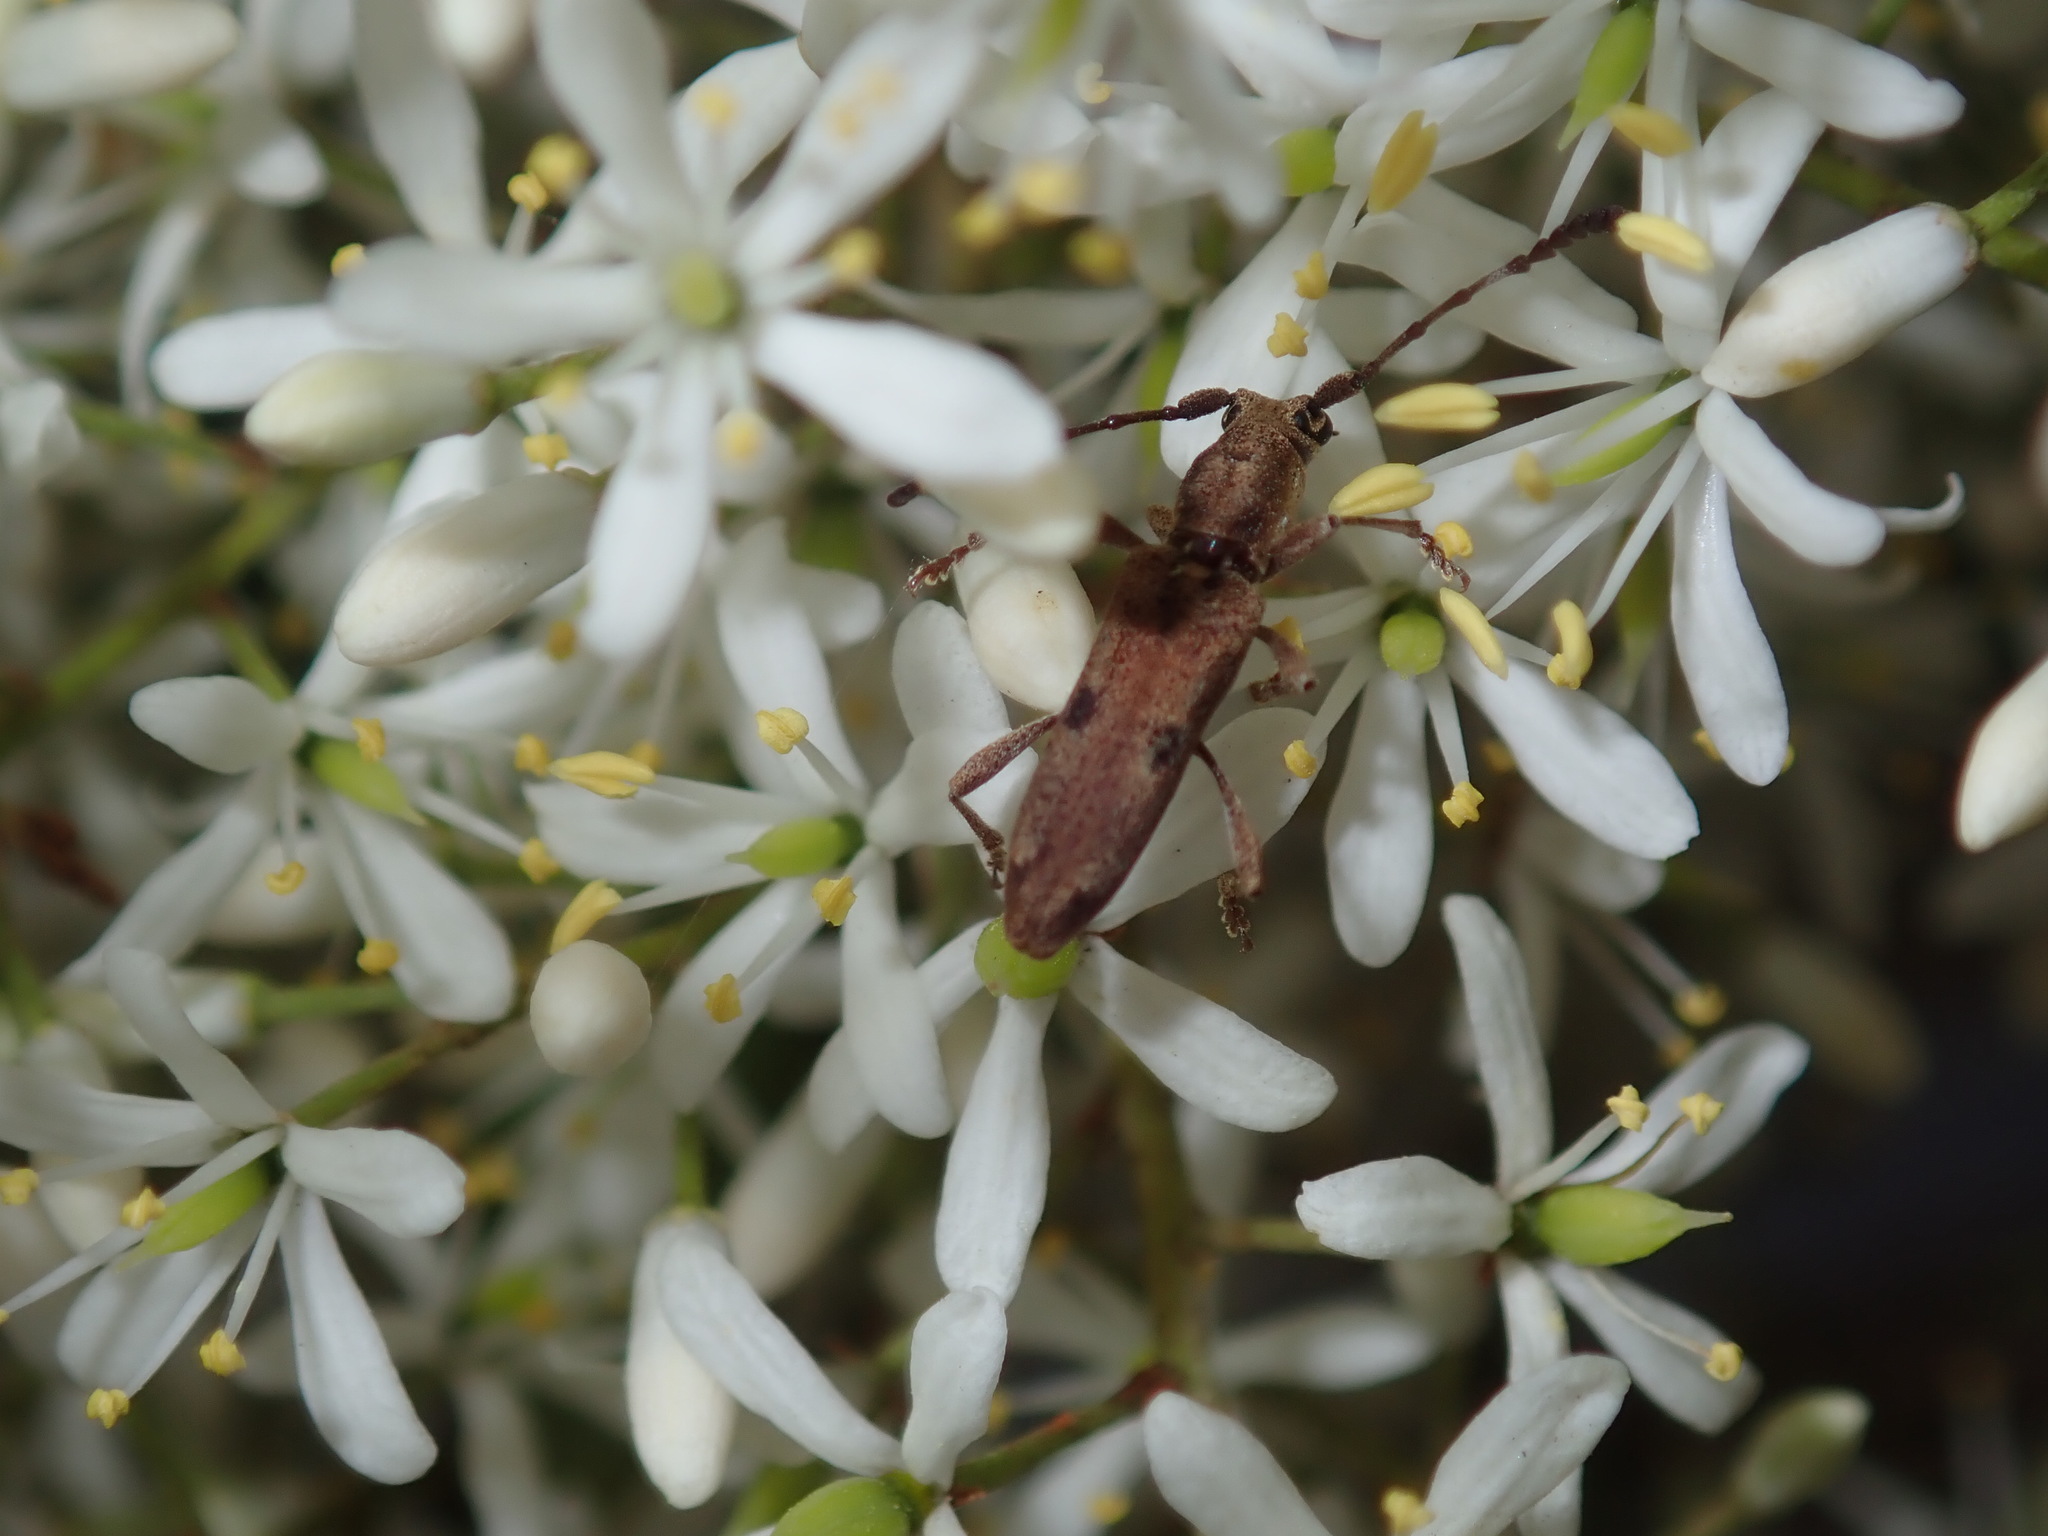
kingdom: Animalia
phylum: Arthropoda
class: Insecta
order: Coleoptera
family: Cerambycidae
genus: Pempsamacra
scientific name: Pempsamacra tillides
